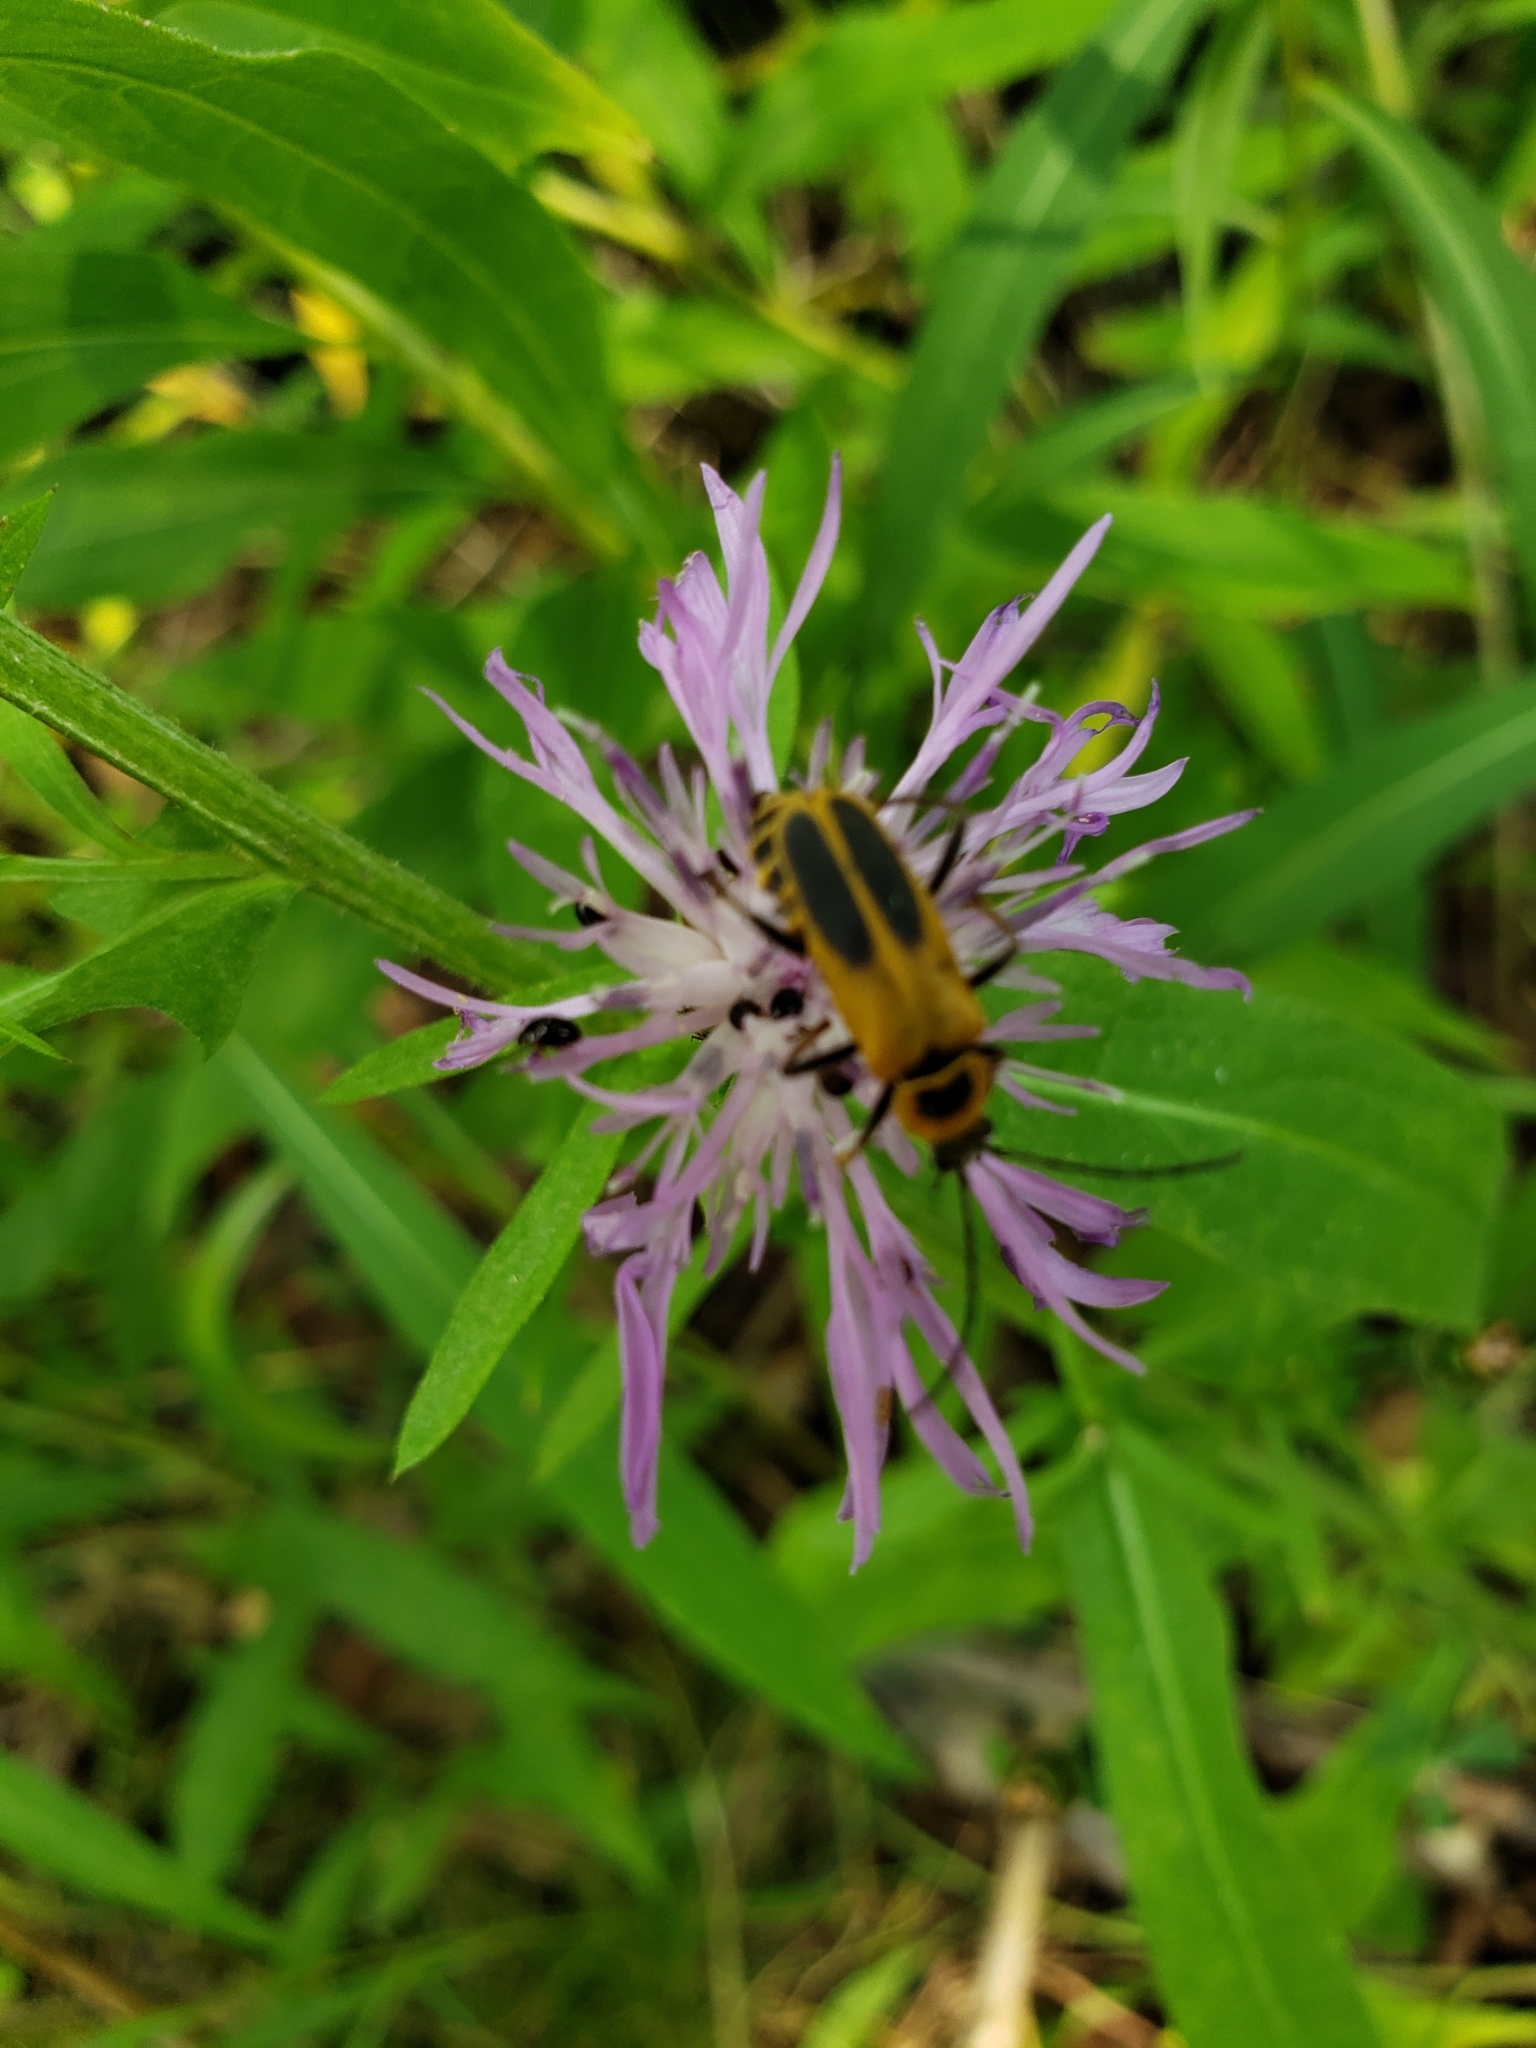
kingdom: Animalia
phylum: Arthropoda
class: Insecta
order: Coleoptera
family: Cantharidae
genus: Chauliognathus
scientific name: Chauliognathus pensylvanicus
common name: Goldenrod soldier beetle
